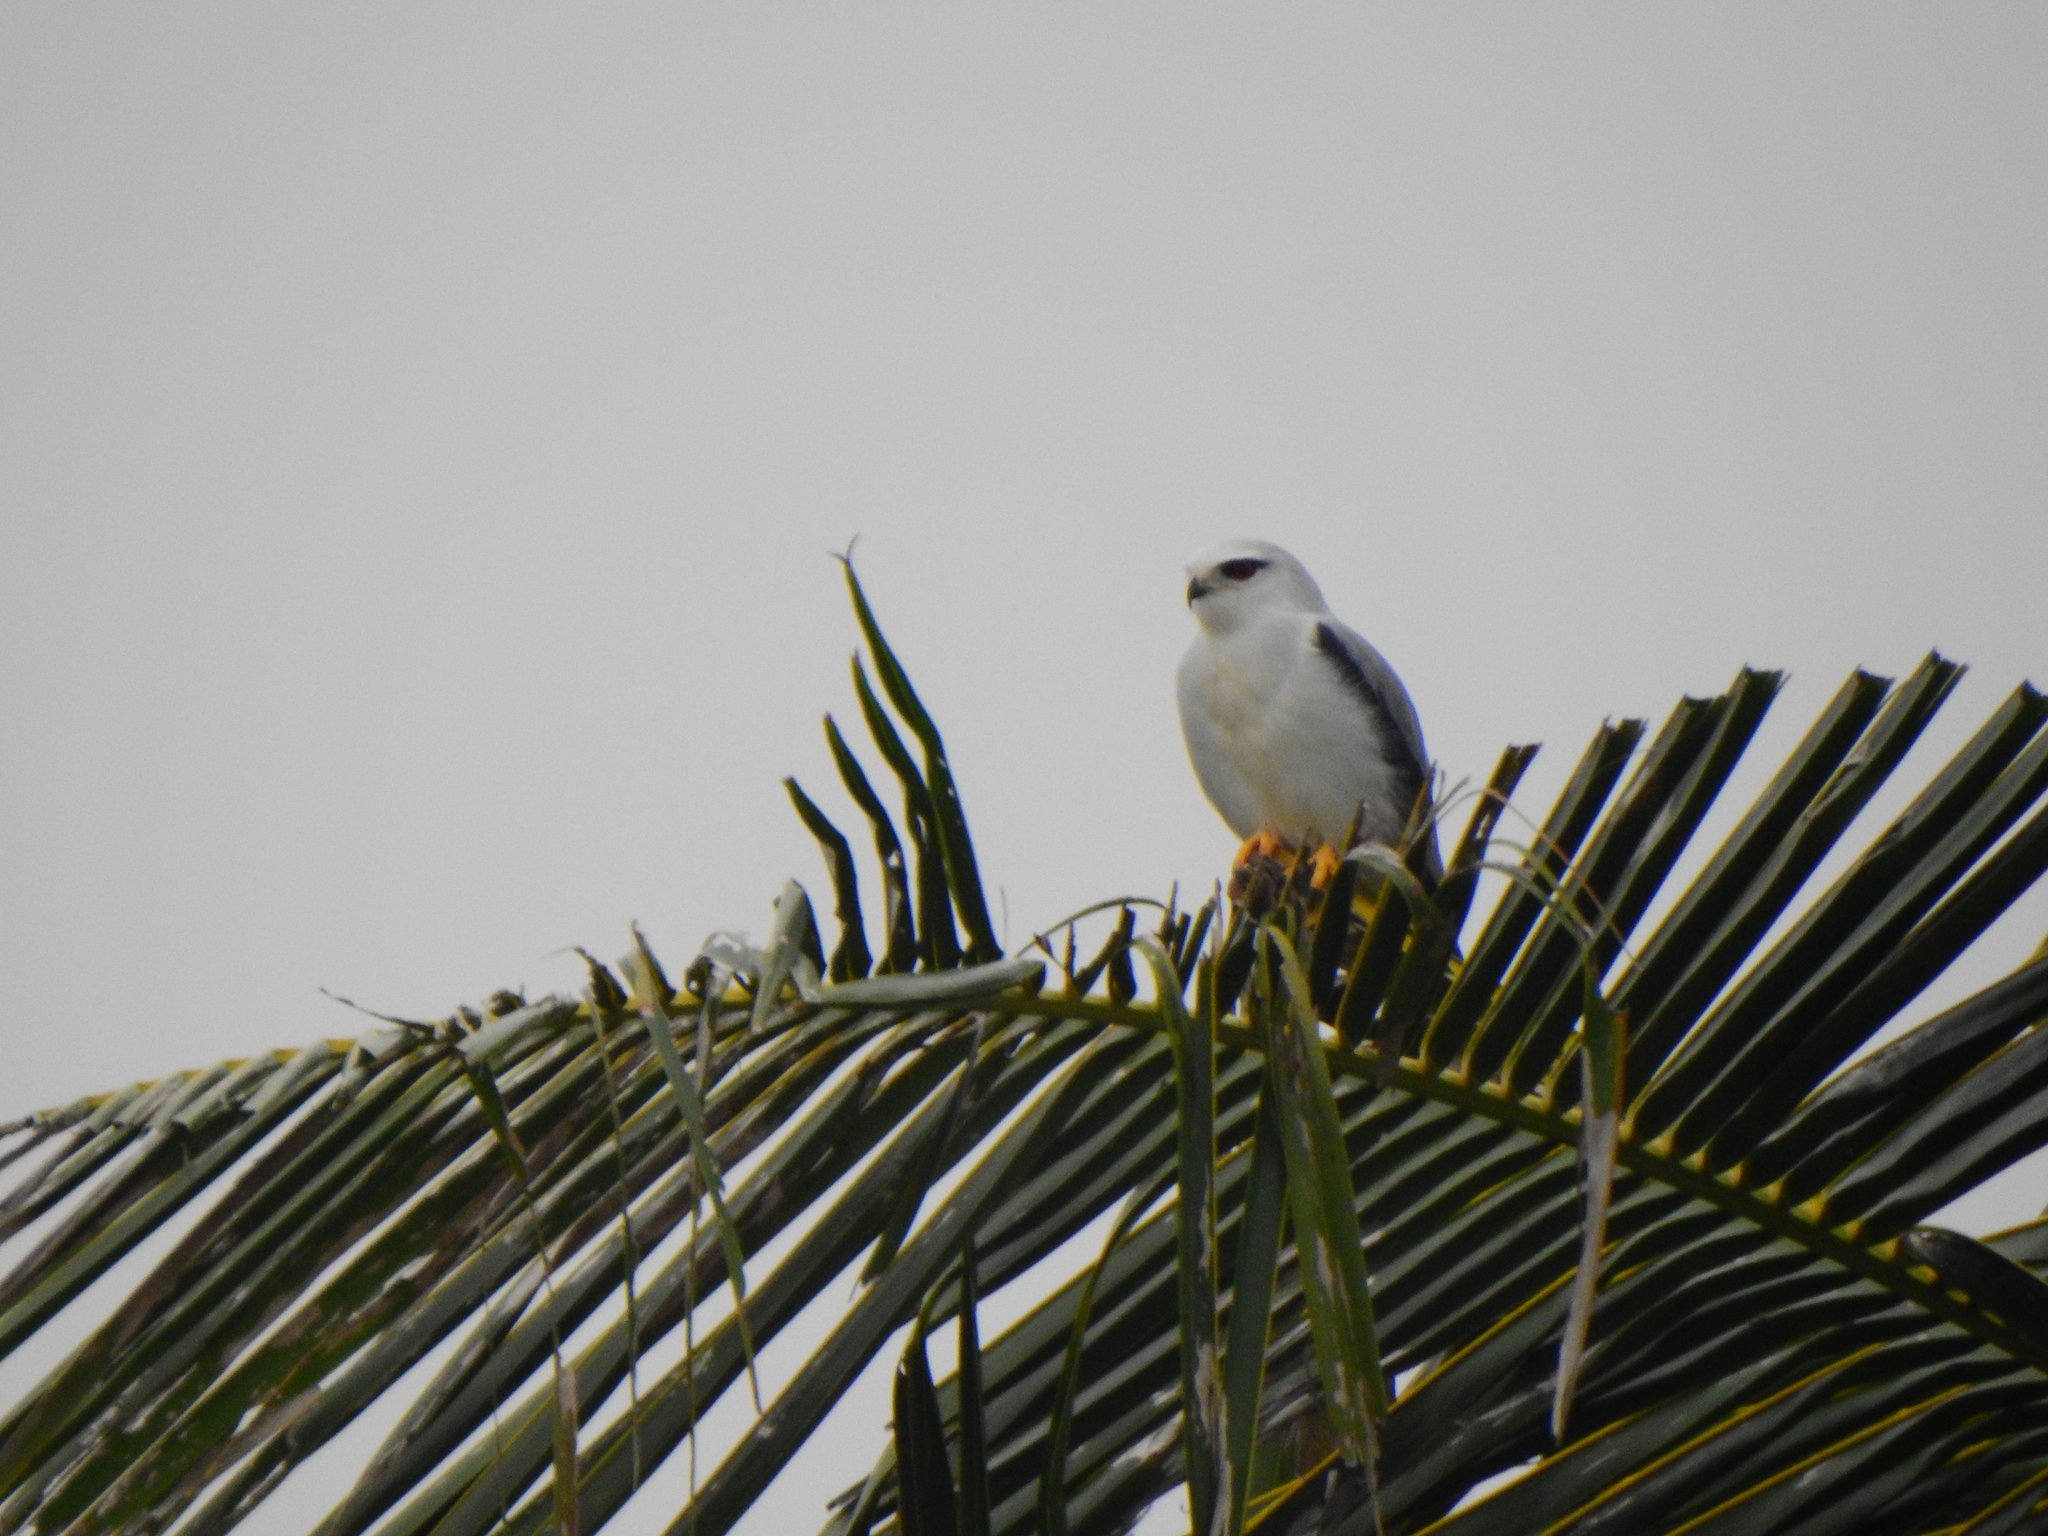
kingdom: Animalia
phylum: Chordata
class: Aves
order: Accipitriformes
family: Accipitridae
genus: Elanus
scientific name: Elanus caeruleus
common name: Black-winged kite
